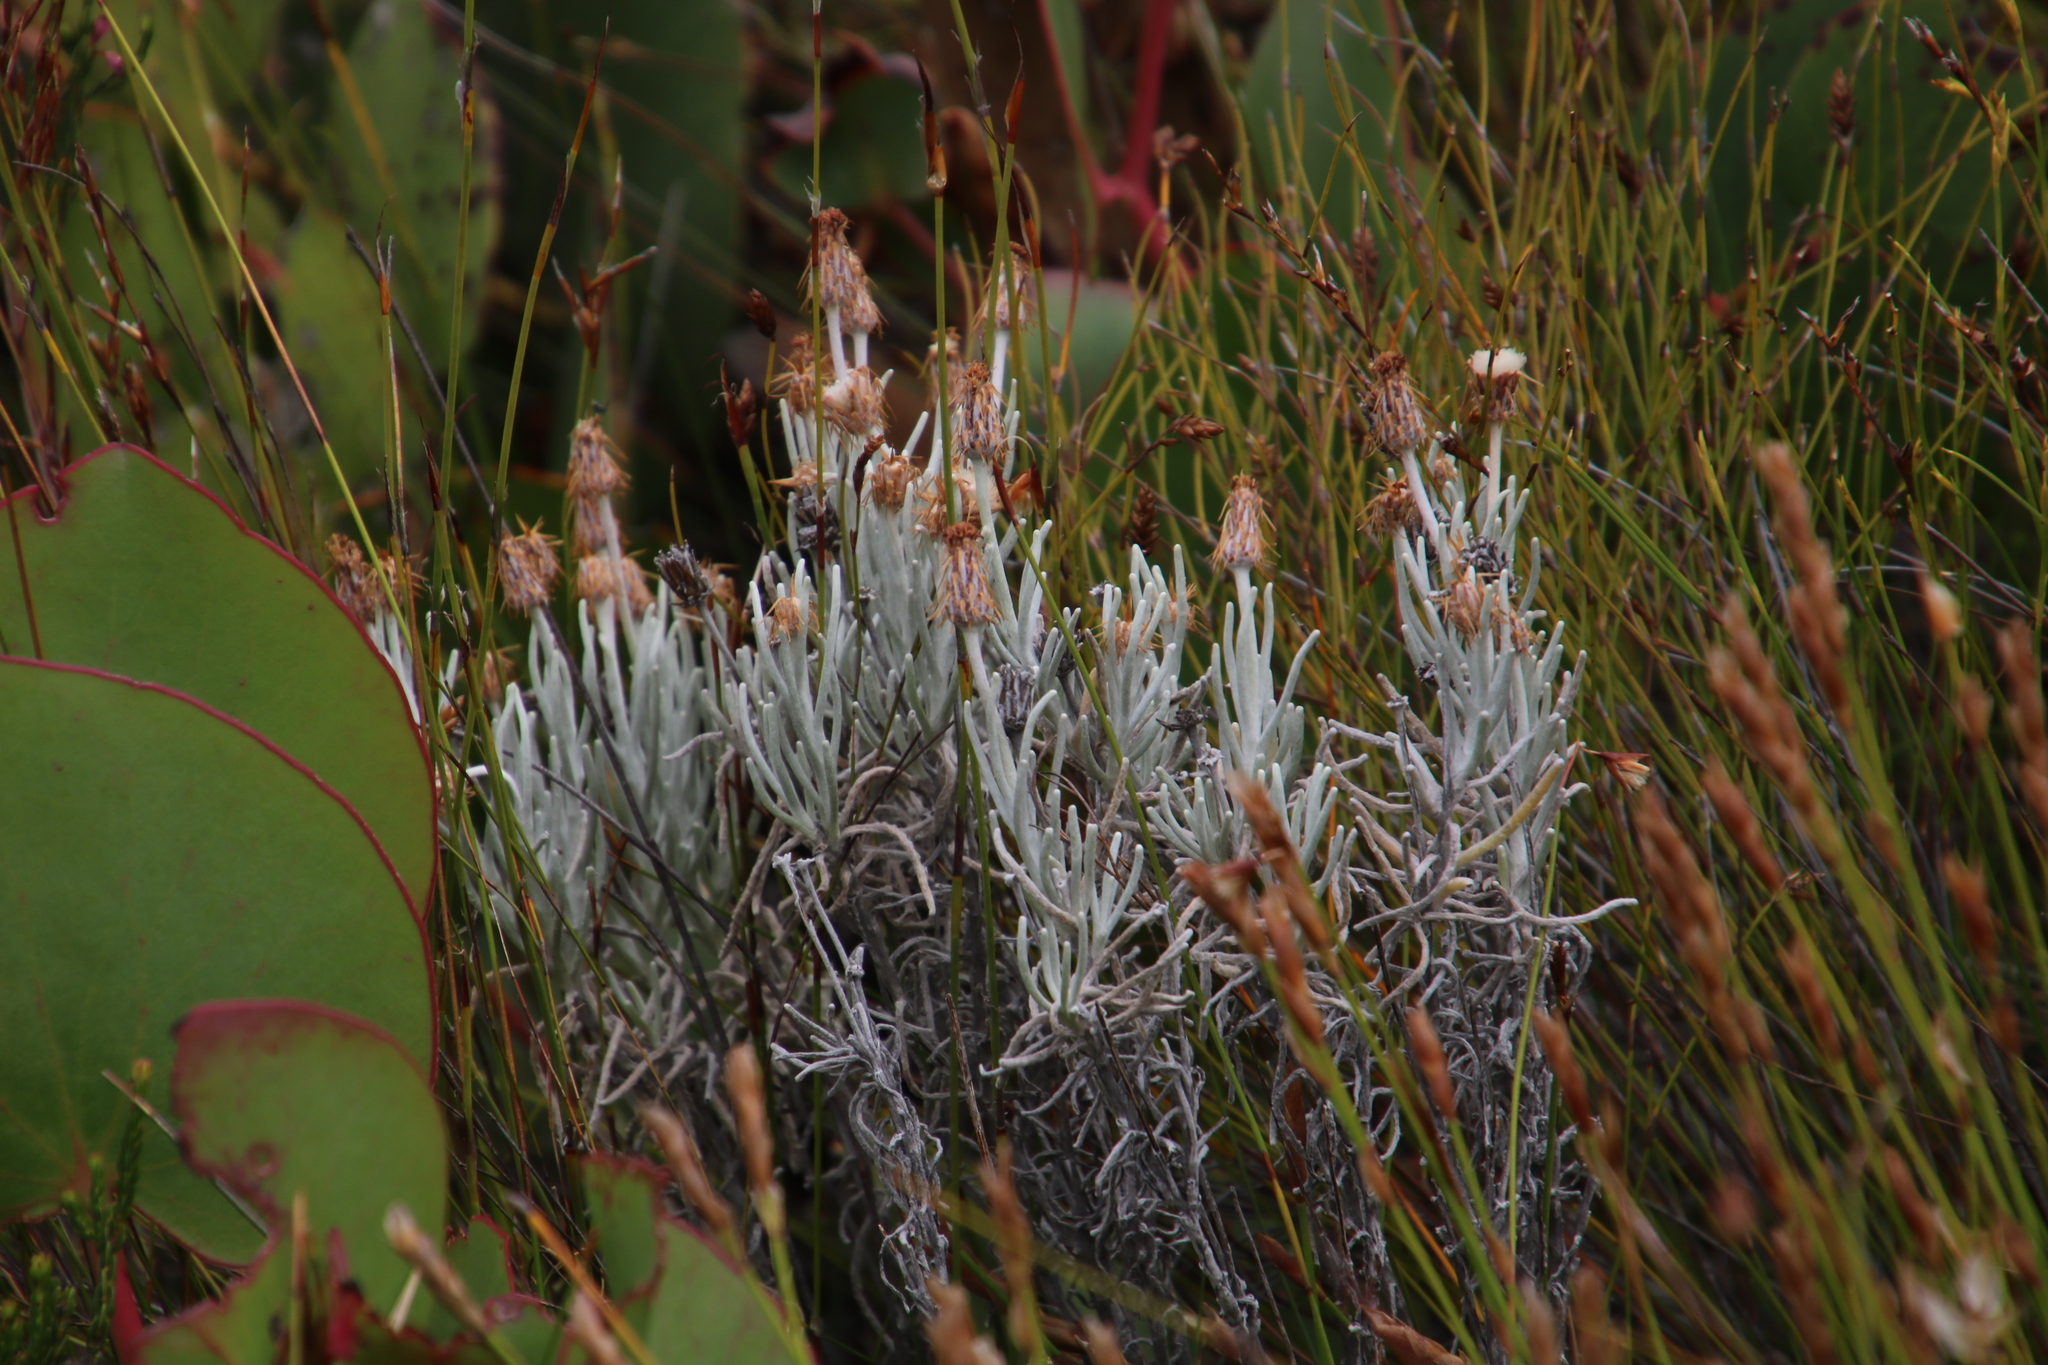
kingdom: Plantae
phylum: Tracheophyta
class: Magnoliopsida
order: Asterales
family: Asteraceae
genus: Syncarpha
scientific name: Syncarpha gnaphaloides
